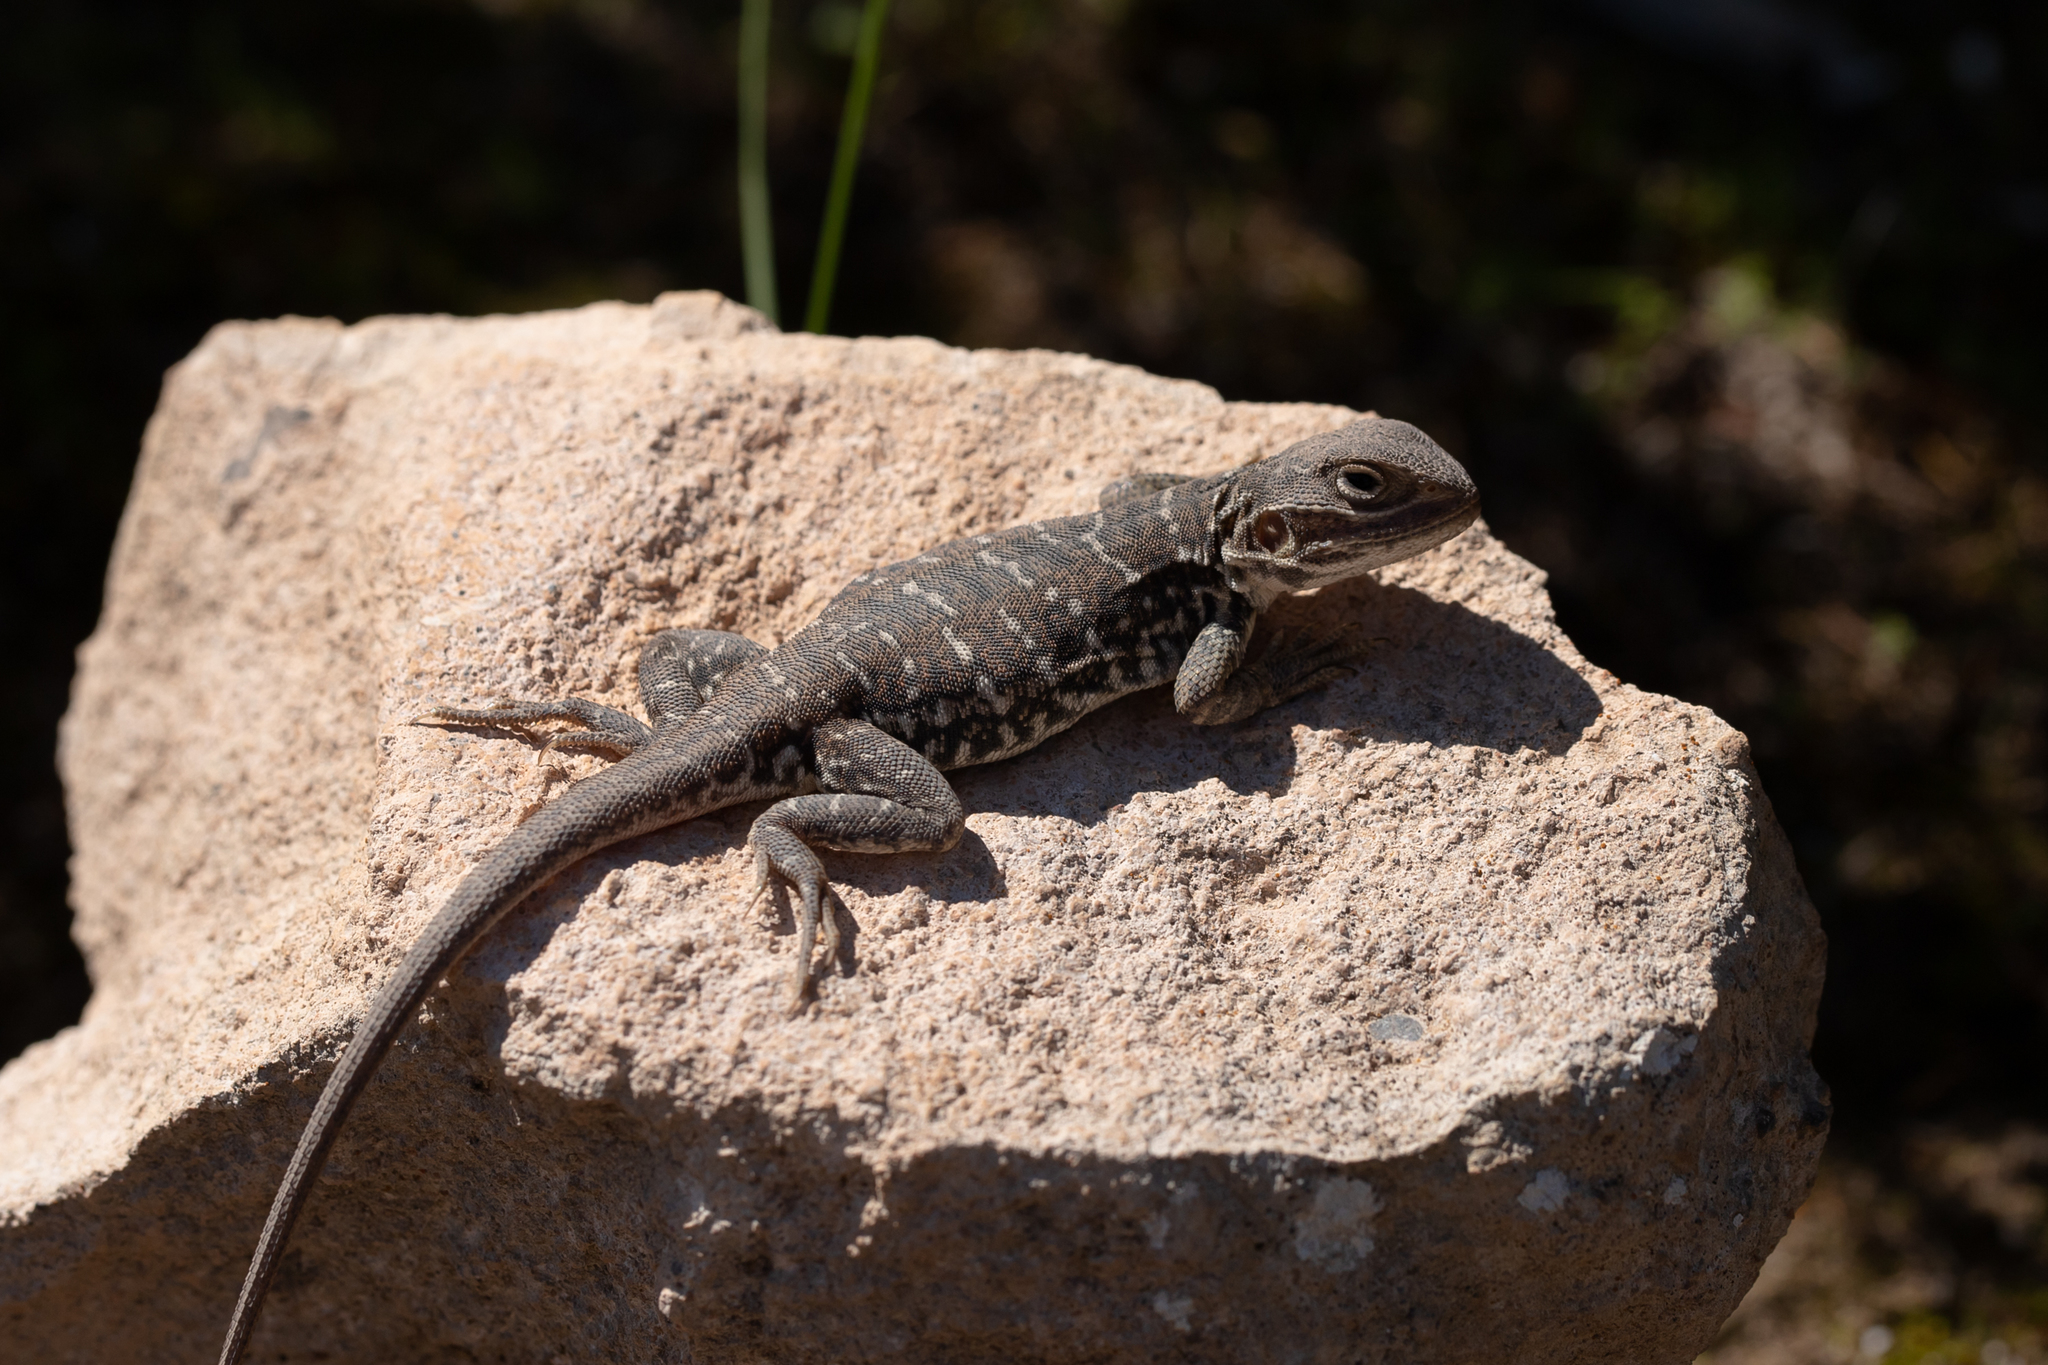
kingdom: Animalia
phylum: Chordata
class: Squamata
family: Agamidae
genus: Ctenophorus
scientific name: Ctenophorus pictus
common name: Painted dragon
